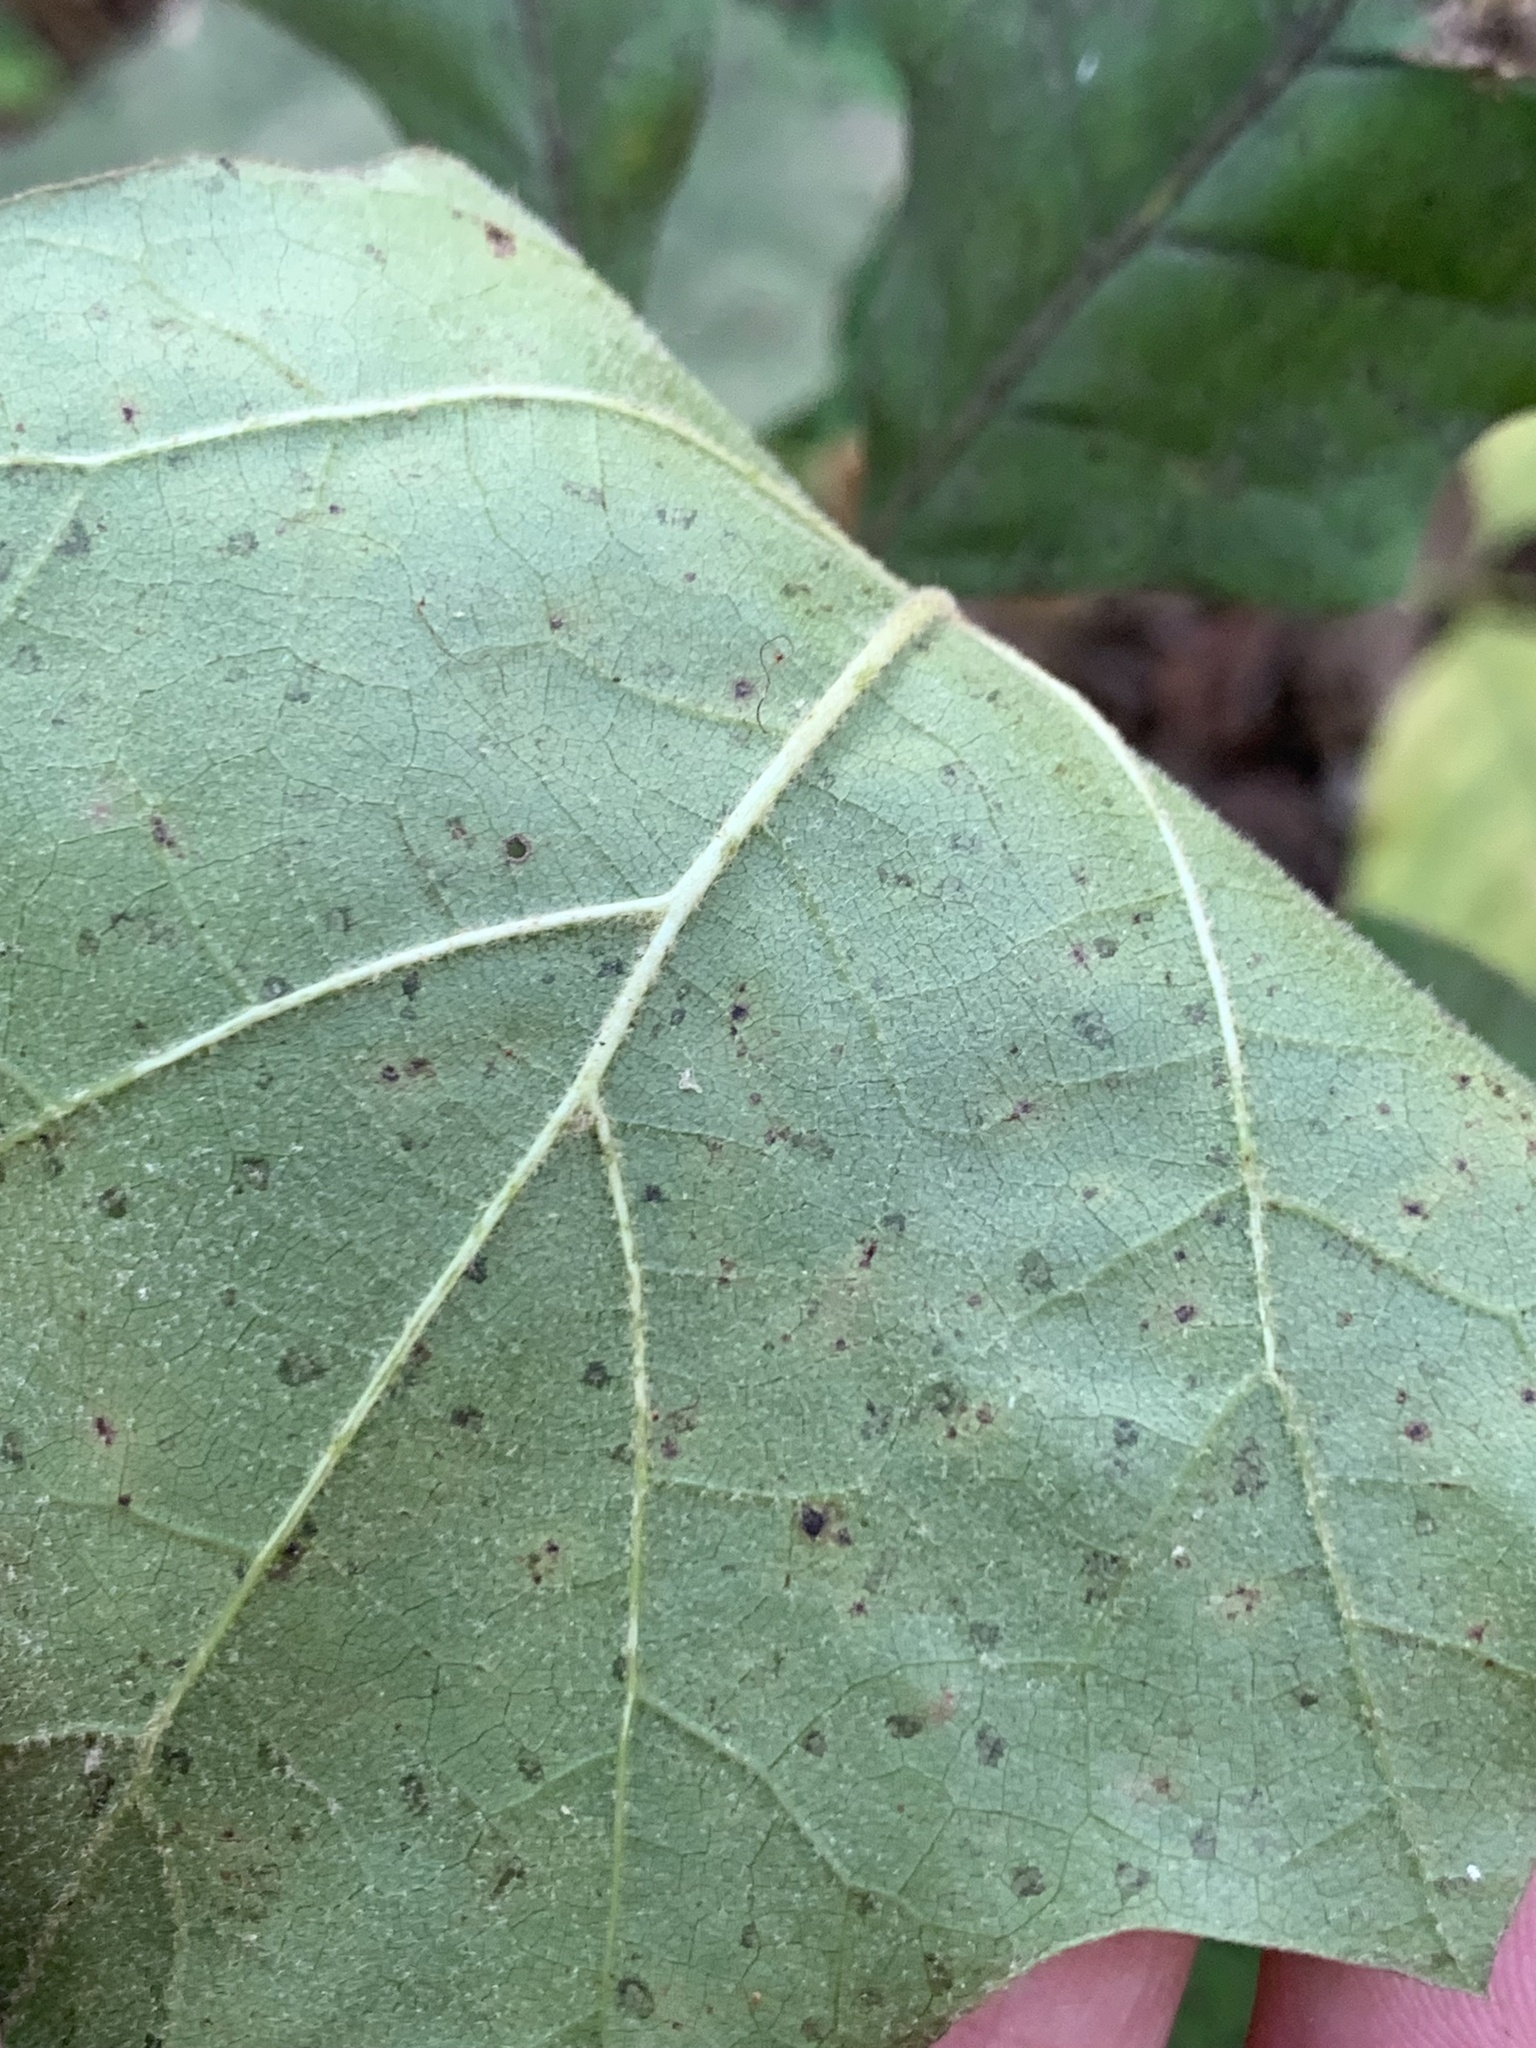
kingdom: Plantae
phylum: Tracheophyta
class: Magnoliopsida
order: Fagales
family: Fagaceae
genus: Quercus
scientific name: Quercus velutina
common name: Black oak
